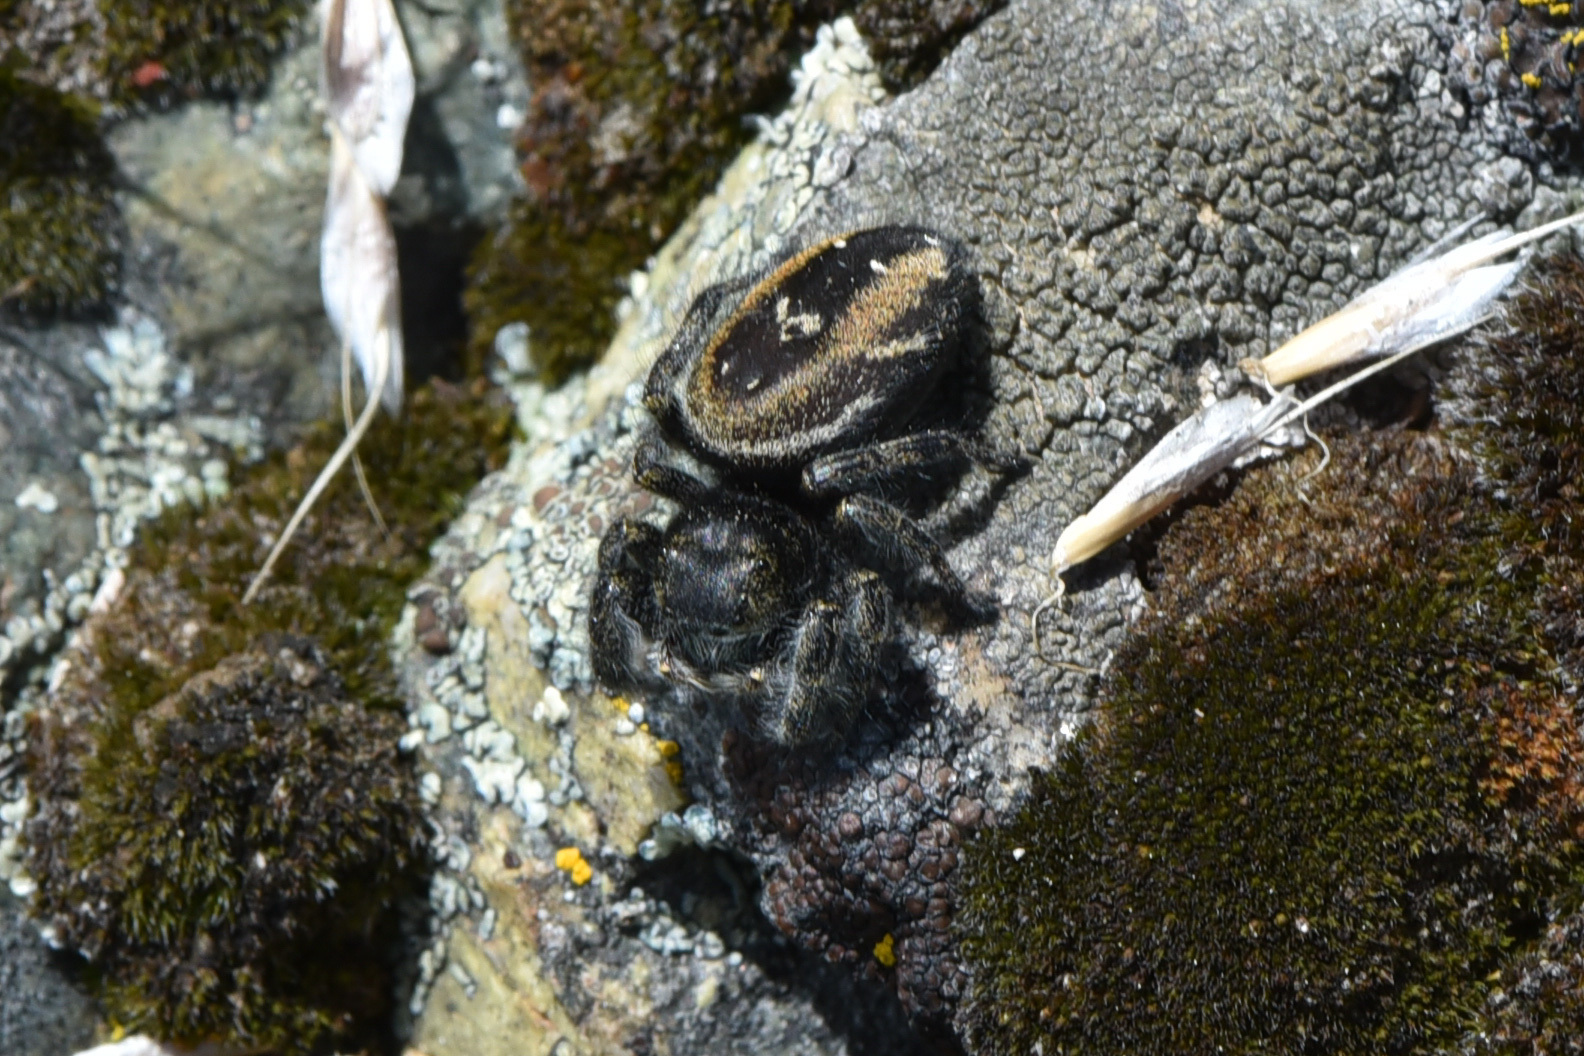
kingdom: Animalia
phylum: Arthropoda
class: Arachnida
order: Araneae
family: Salticidae
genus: Phidippus
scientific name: Phidippus johnsoni
